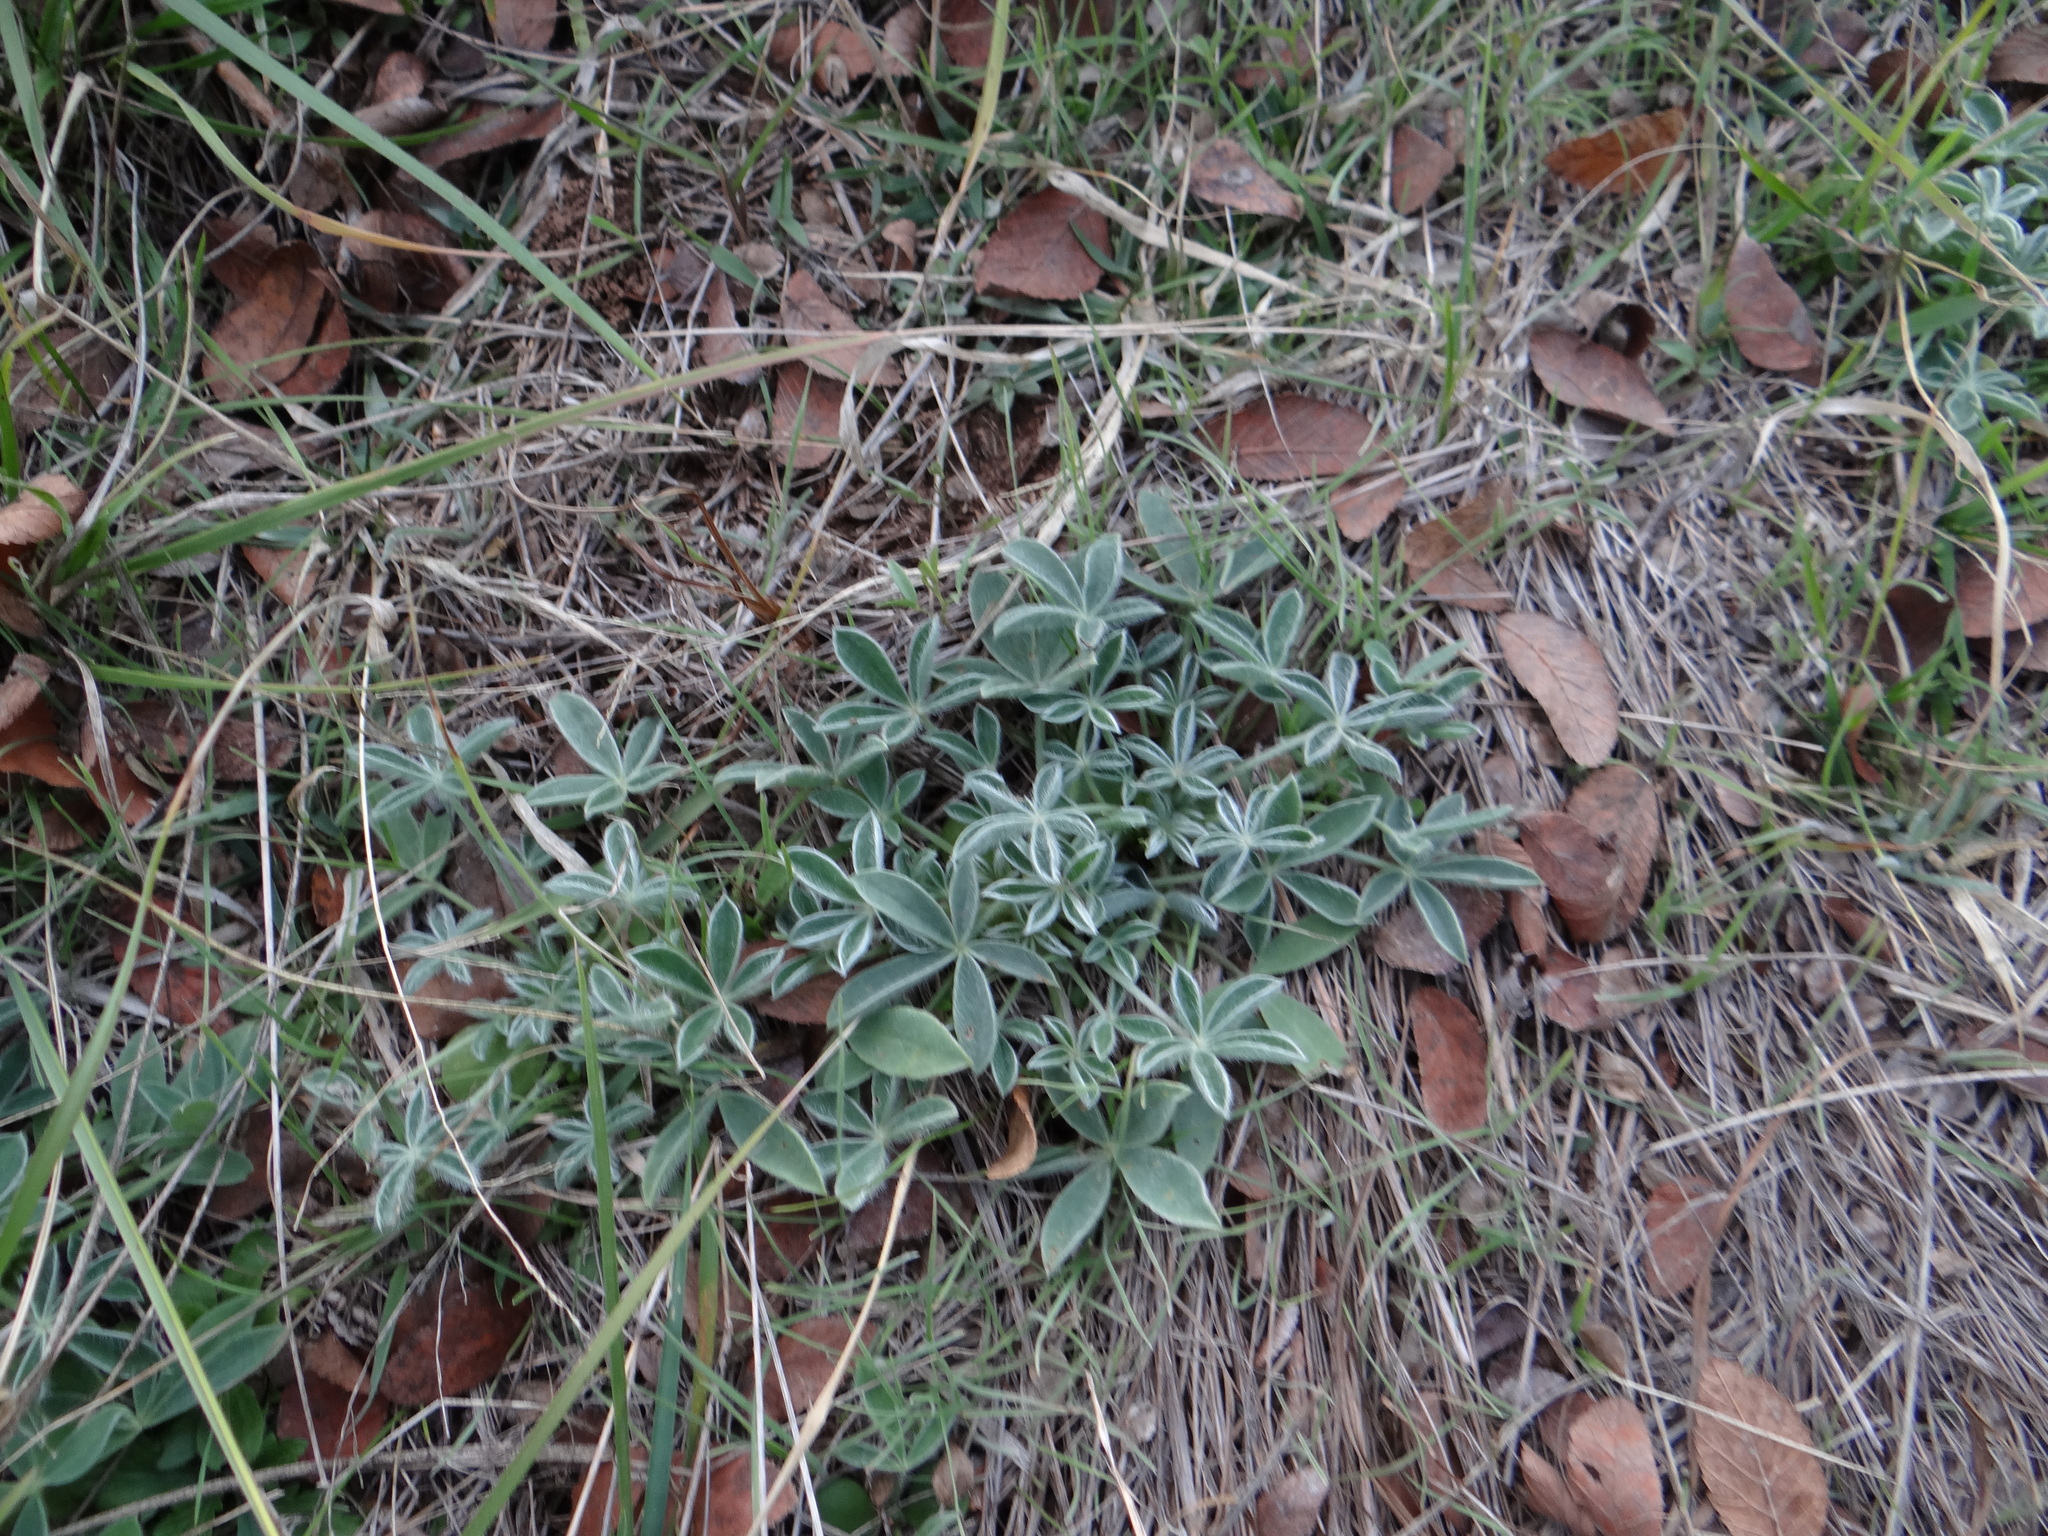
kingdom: Plantae
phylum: Tracheophyta
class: Magnoliopsida
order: Fabales
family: Fabaceae
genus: Lupinus
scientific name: Lupinus texensis
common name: Texas bluebonnet
